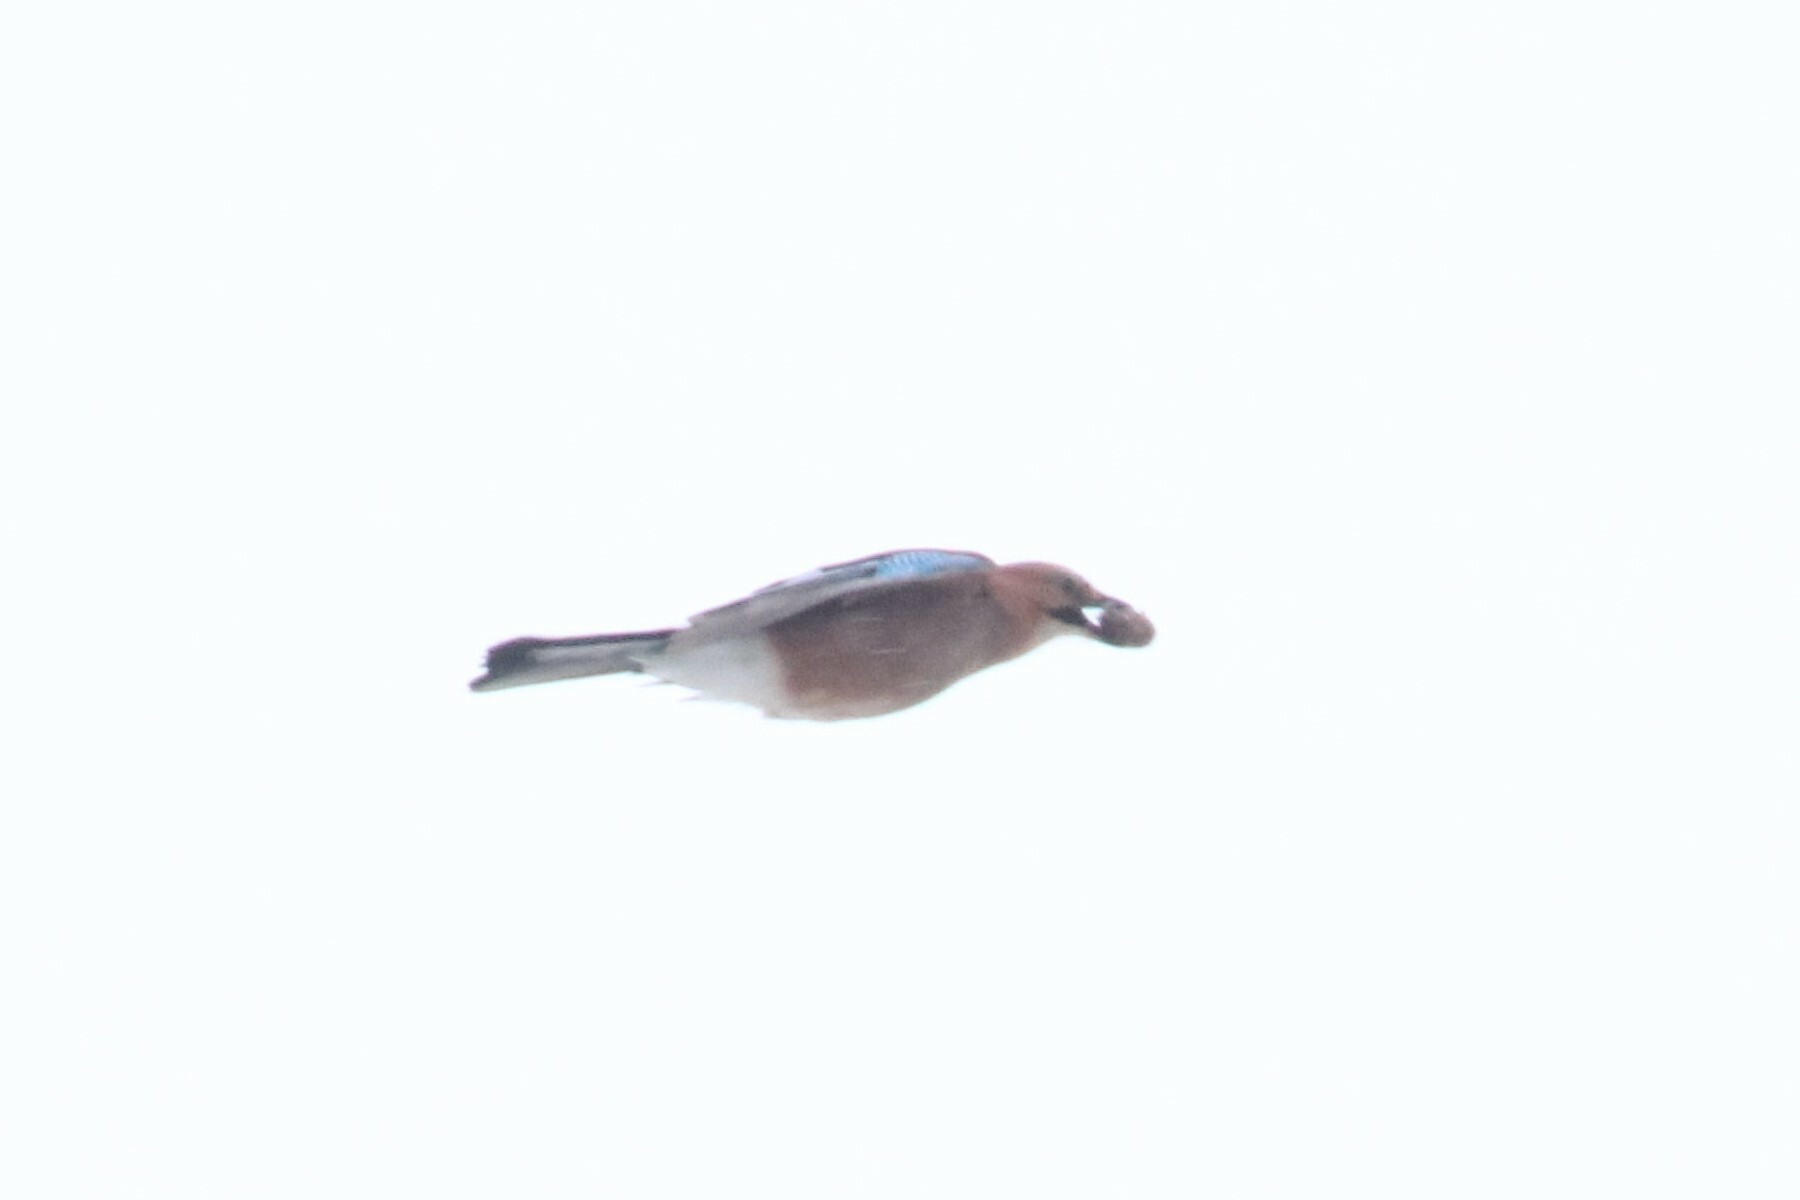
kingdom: Animalia
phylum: Chordata
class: Aves
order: Passeriformes
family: Corvidae
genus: Garrulus
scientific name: Garrulus glandarius
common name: Eurasian jay
